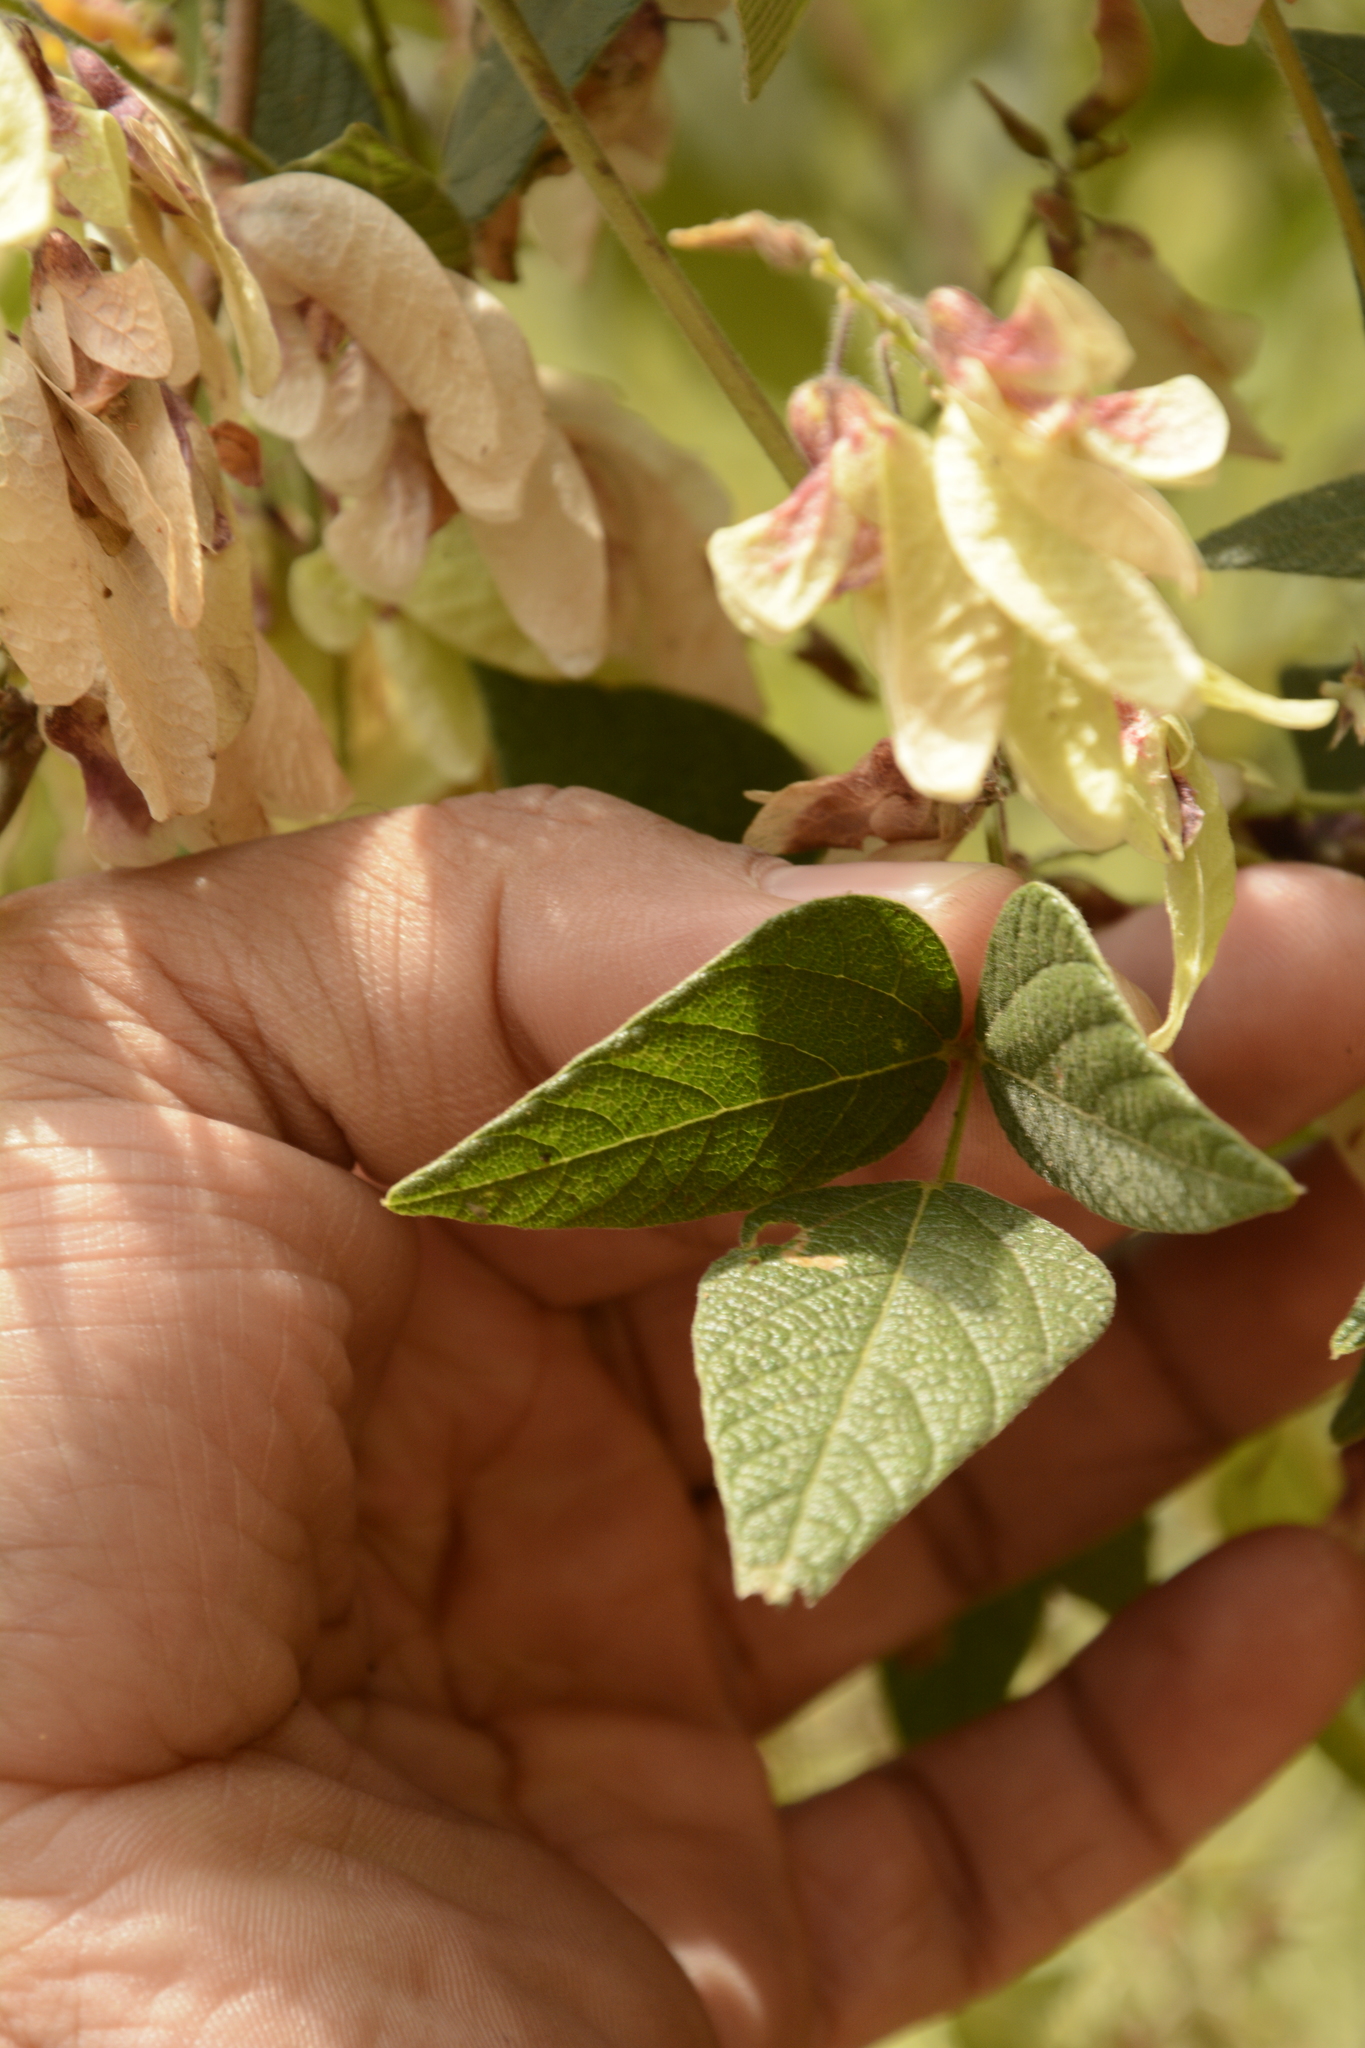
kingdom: Plantae
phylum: Tracheophyta
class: Magnoliopsida
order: Fabales
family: Fabaceae
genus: Paracalyx
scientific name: Paracalyx scariosus
